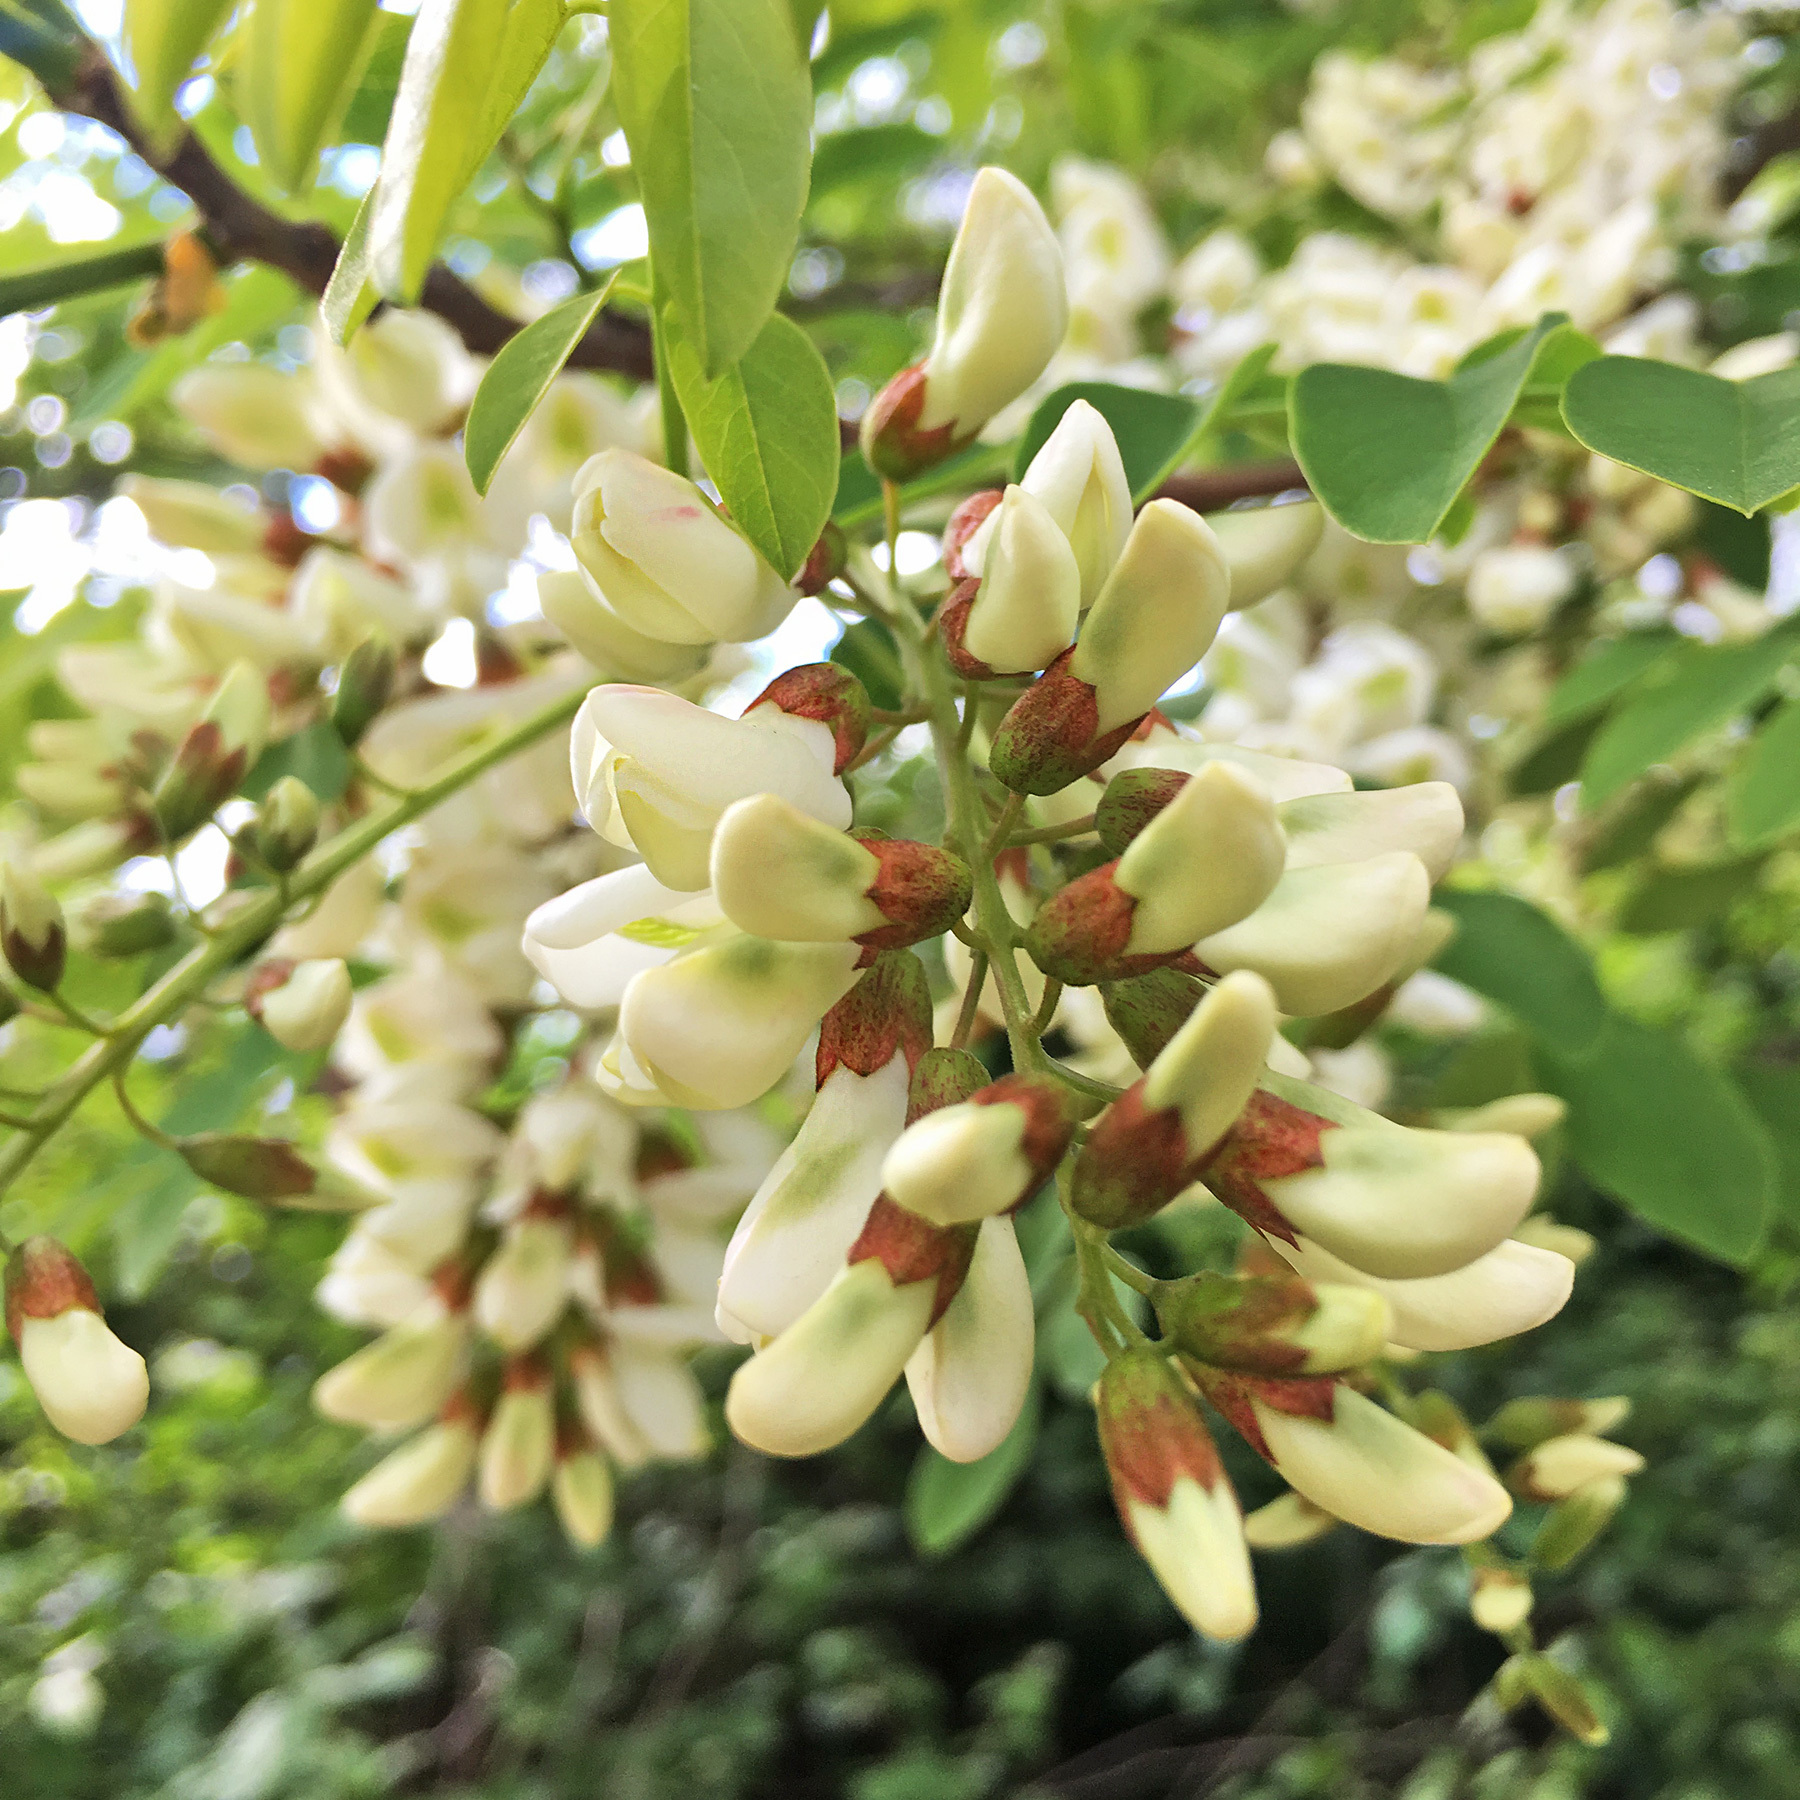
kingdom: Plantae
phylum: Tracheophyta
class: Magnoliopsida
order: Fabales
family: Fabaceae
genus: Robinia
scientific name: Robinia pseudoacacia
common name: Black locust
